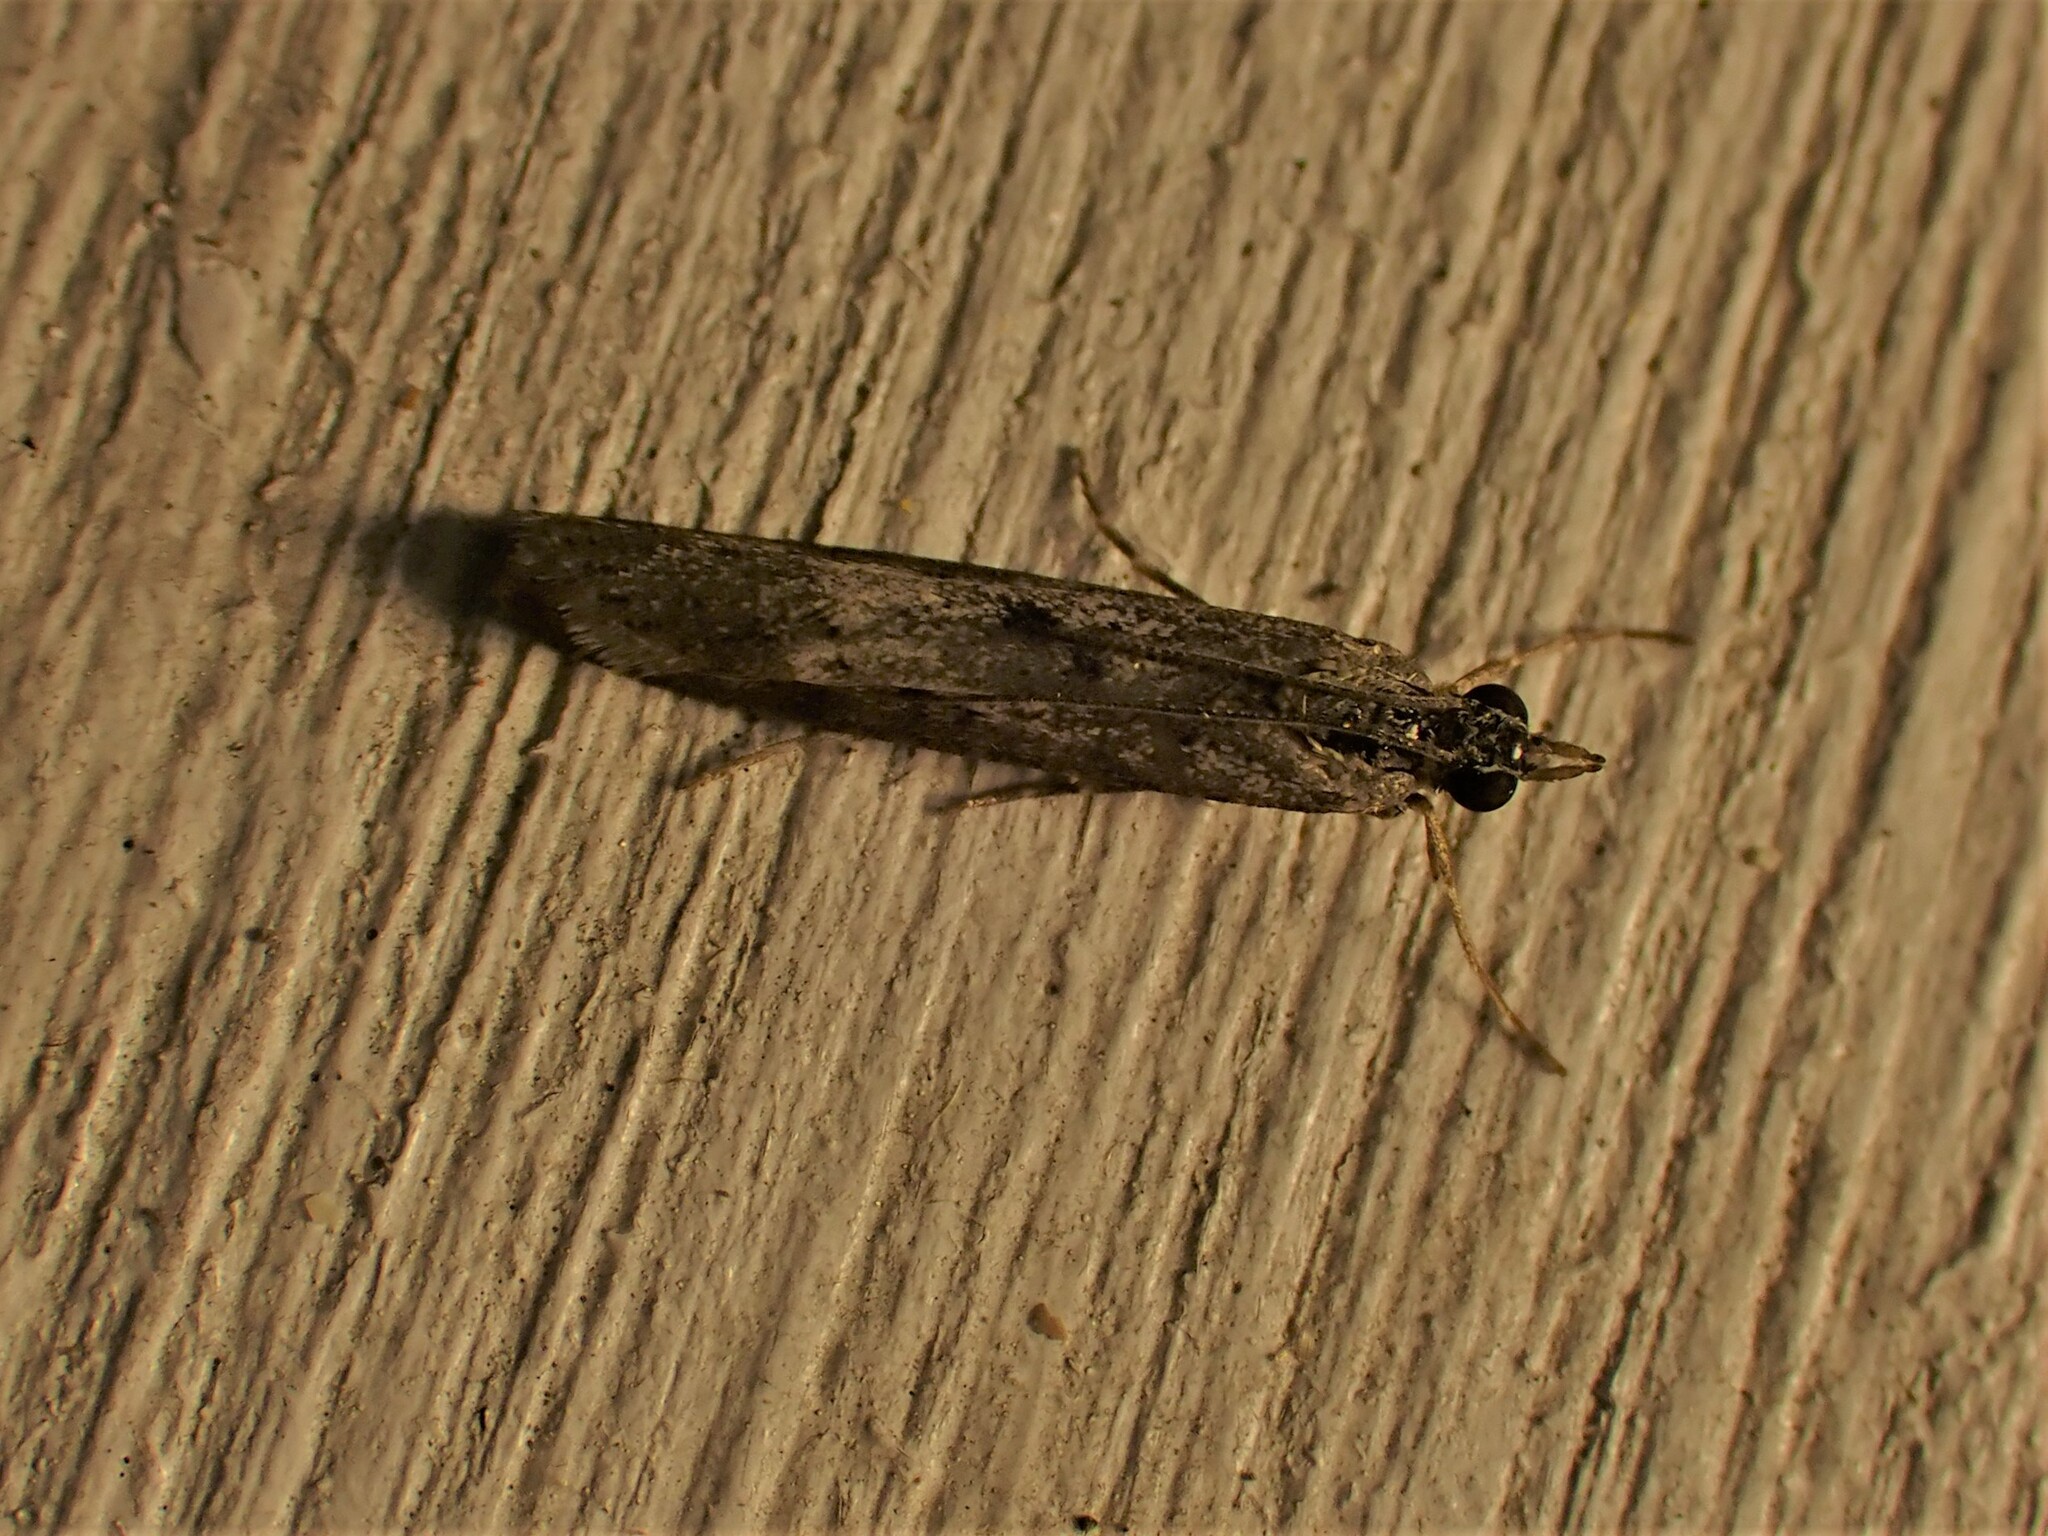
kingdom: Animalia
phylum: Arthropoda
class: Insecta
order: Lepidoptera
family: Crambidae
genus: Eudonia
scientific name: Eudonia leptalea
